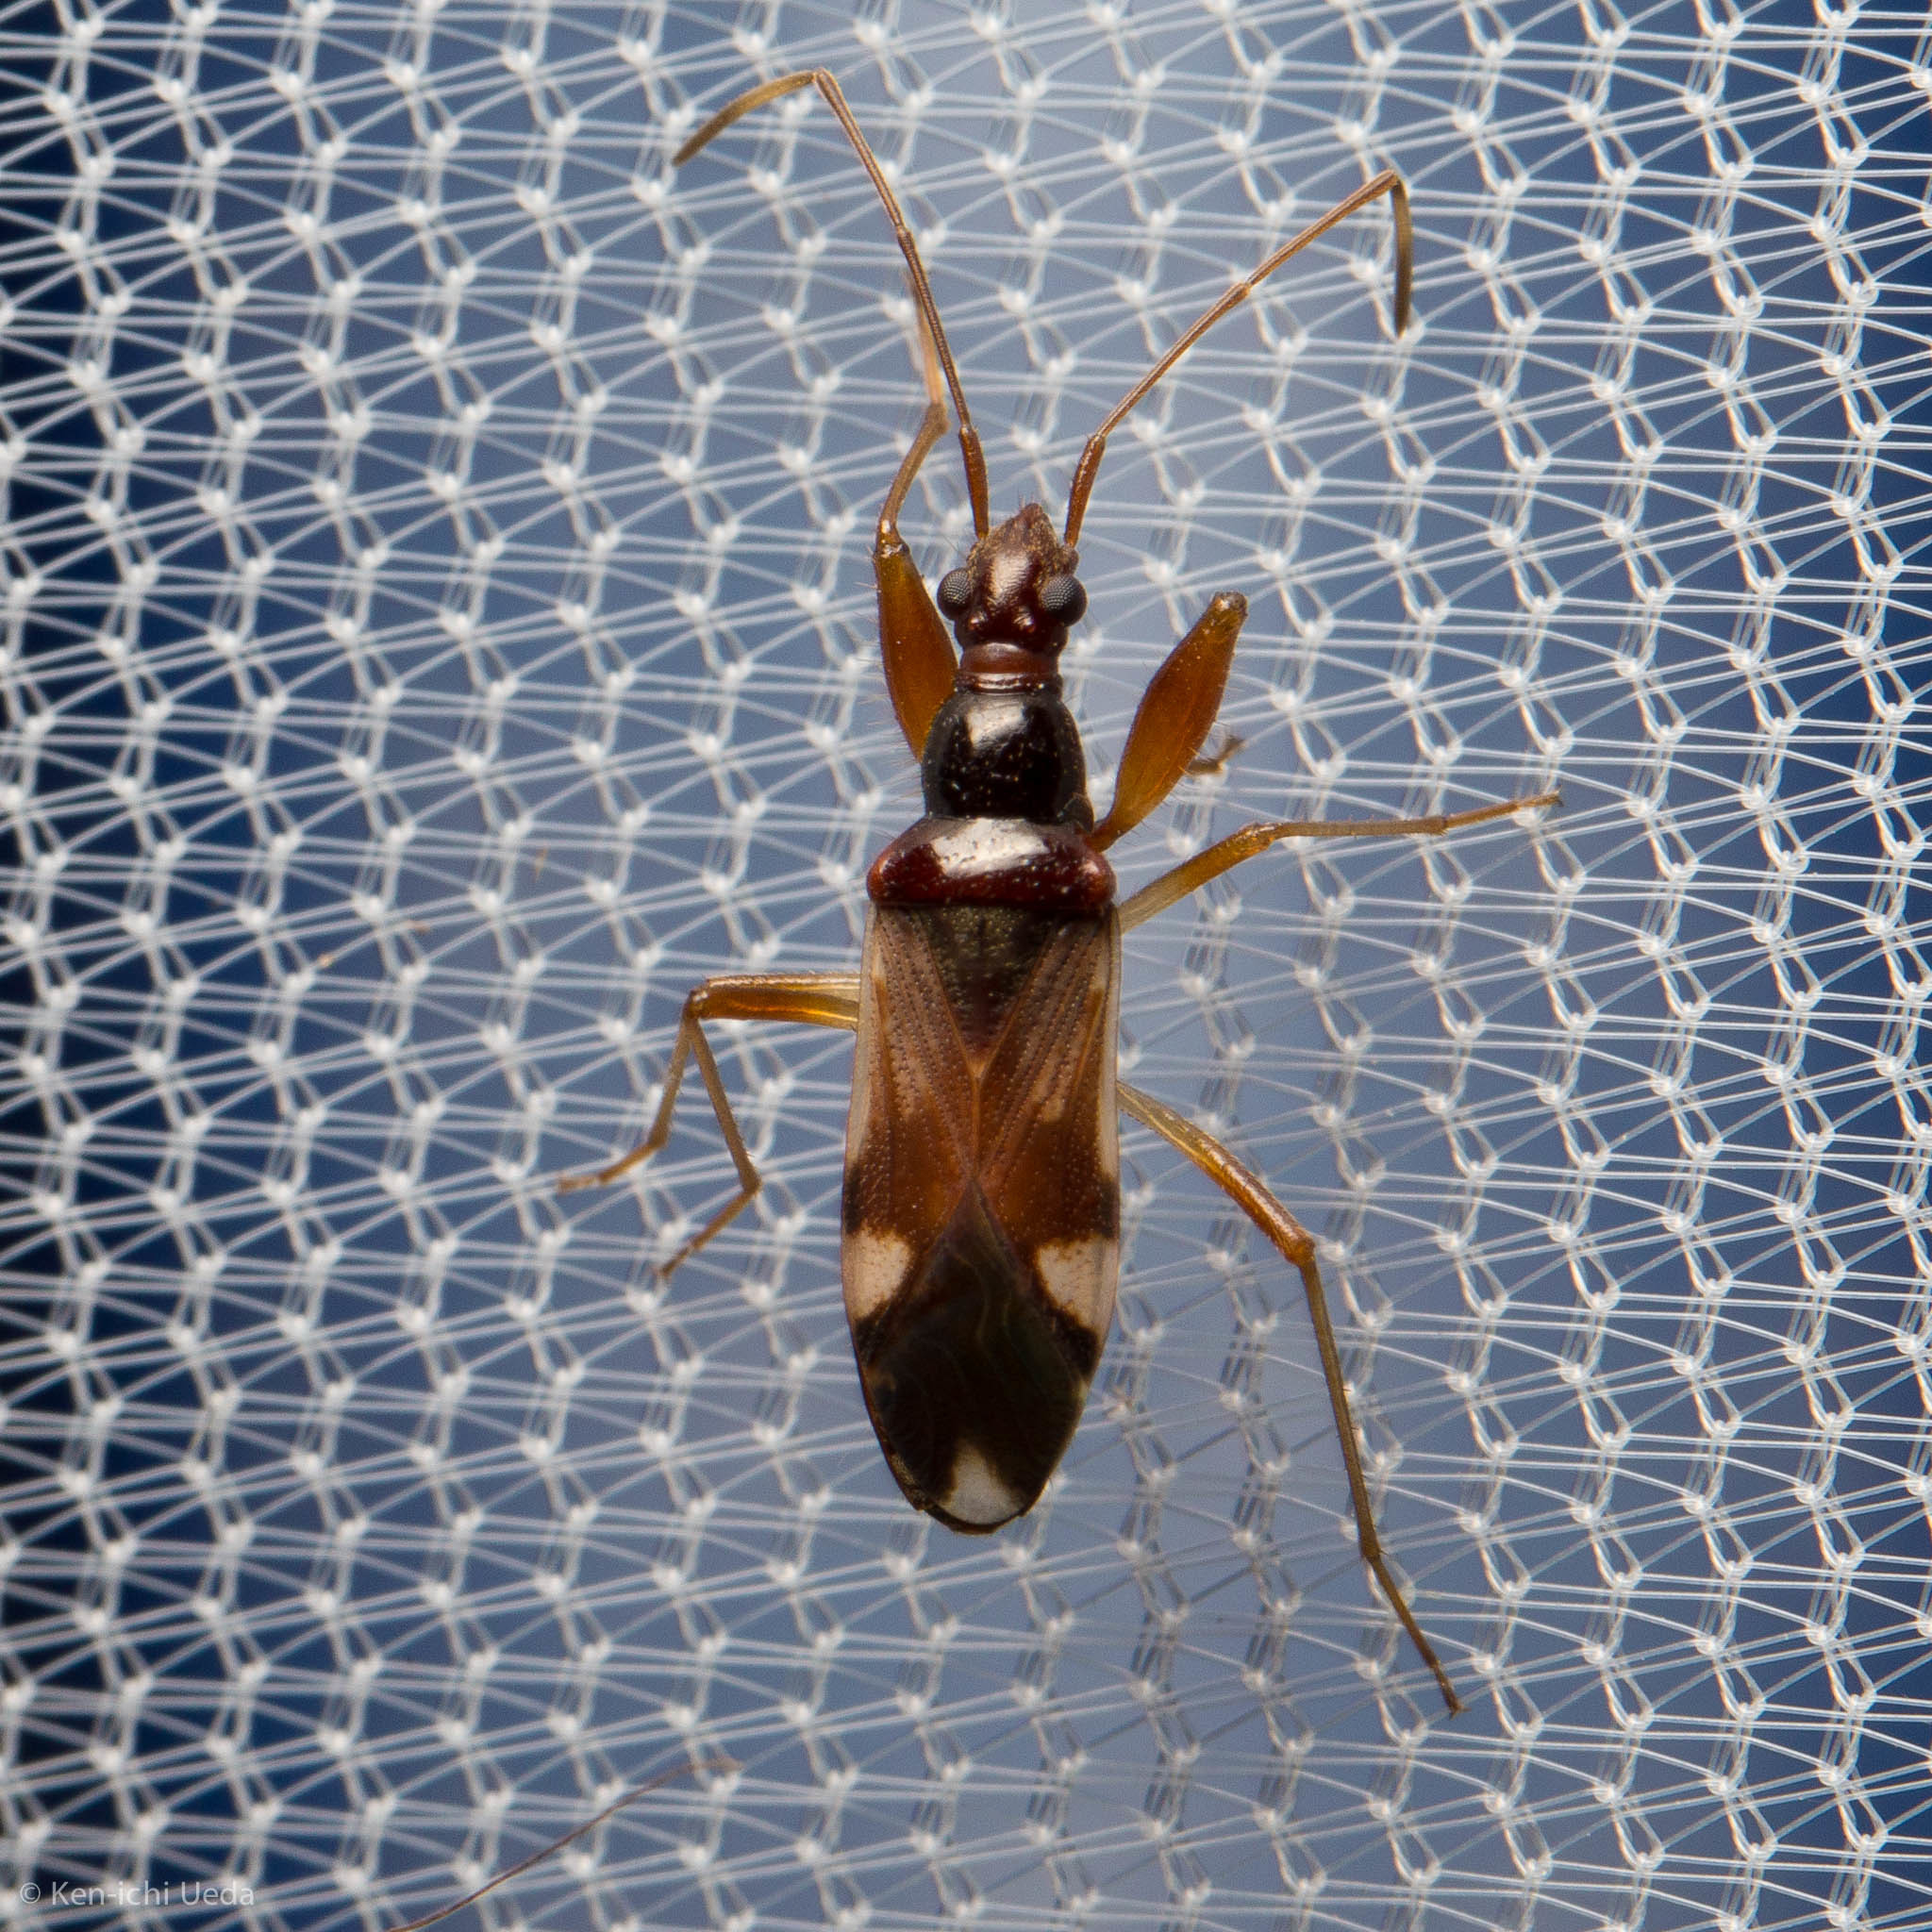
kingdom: Animalia
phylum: Arthropoda
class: Insecta
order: Hemiptera
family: Rhyparochromidae
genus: Pseudopamera
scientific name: Pseudopamera aurivilliana
